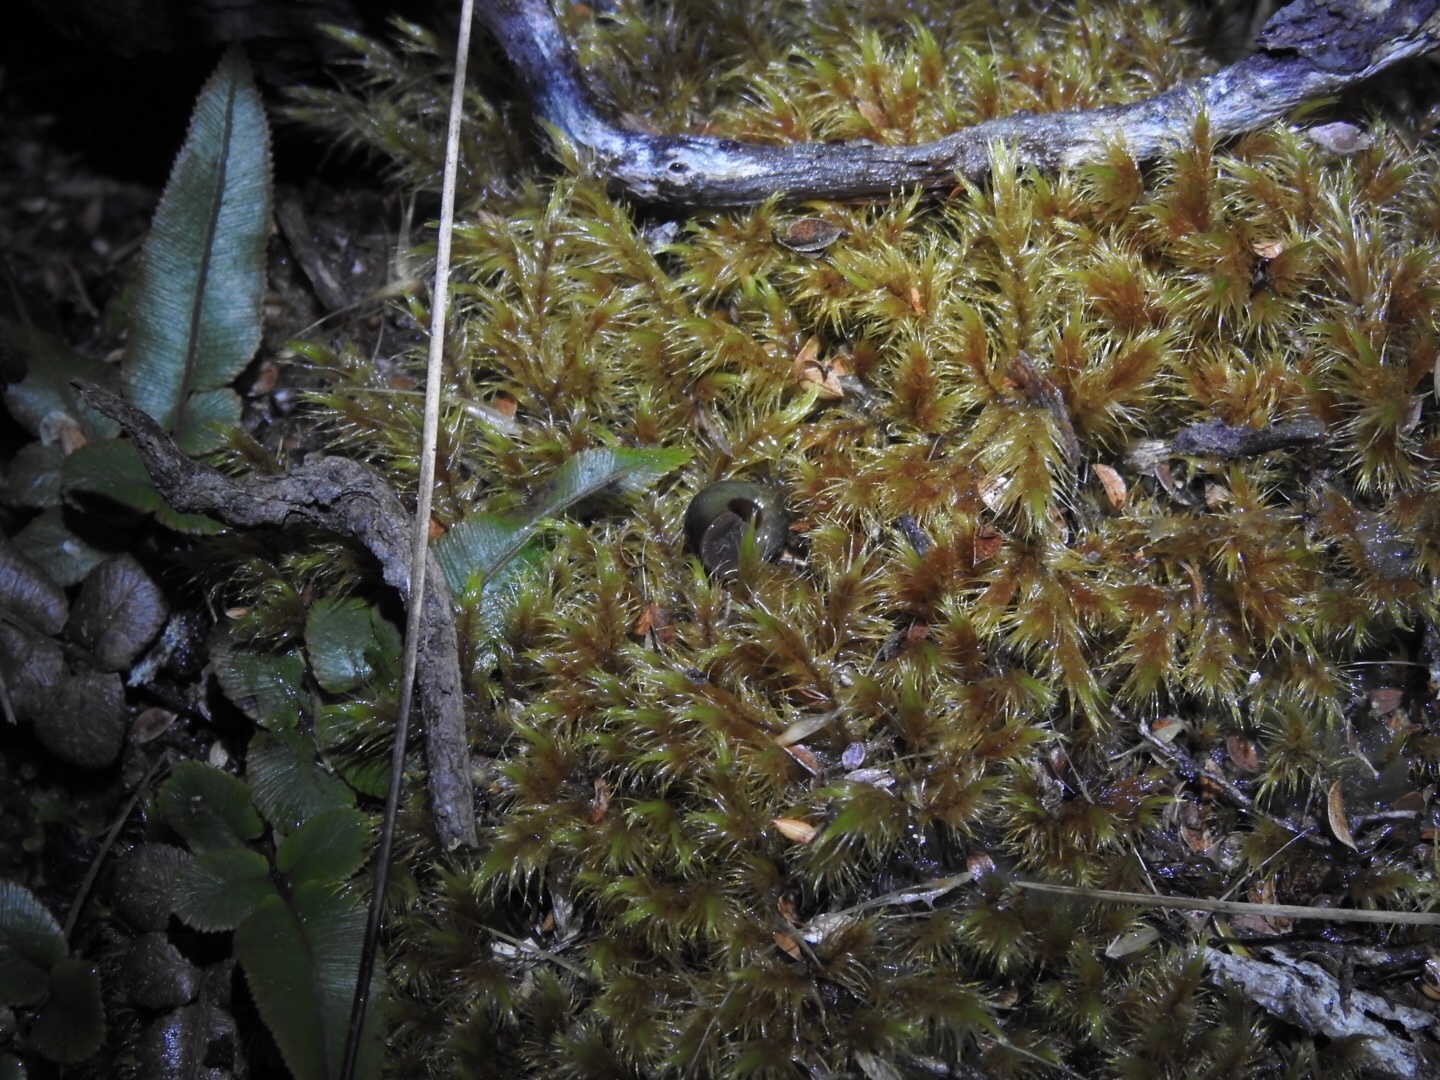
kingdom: Animalia
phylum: Mollusca
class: Gastropoda
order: Stylommatophora
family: Rhytididae
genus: Rhytida
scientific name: Rhytida australis
